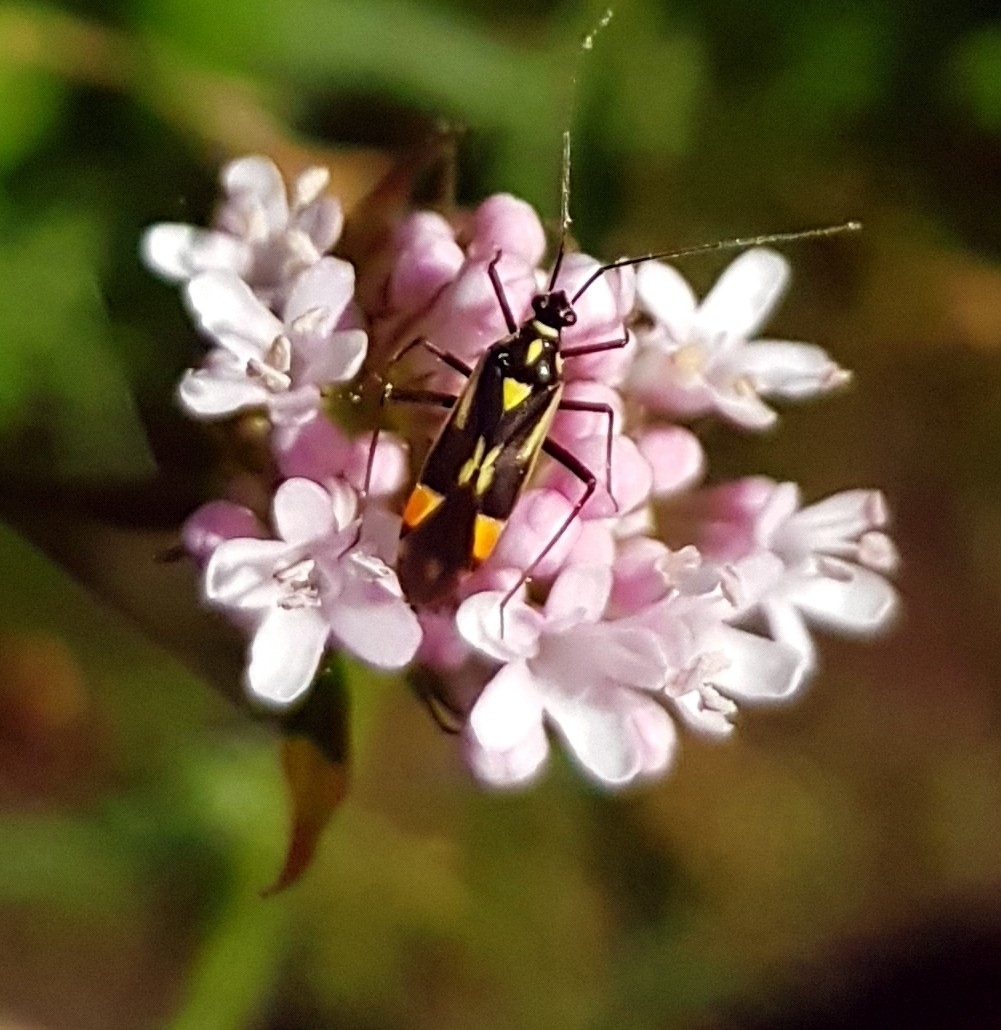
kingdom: Animalia
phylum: Arthropoda
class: Insecta
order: Hemiptera
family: Miridae
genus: Grypocoris
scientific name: Grypocoris stysi
